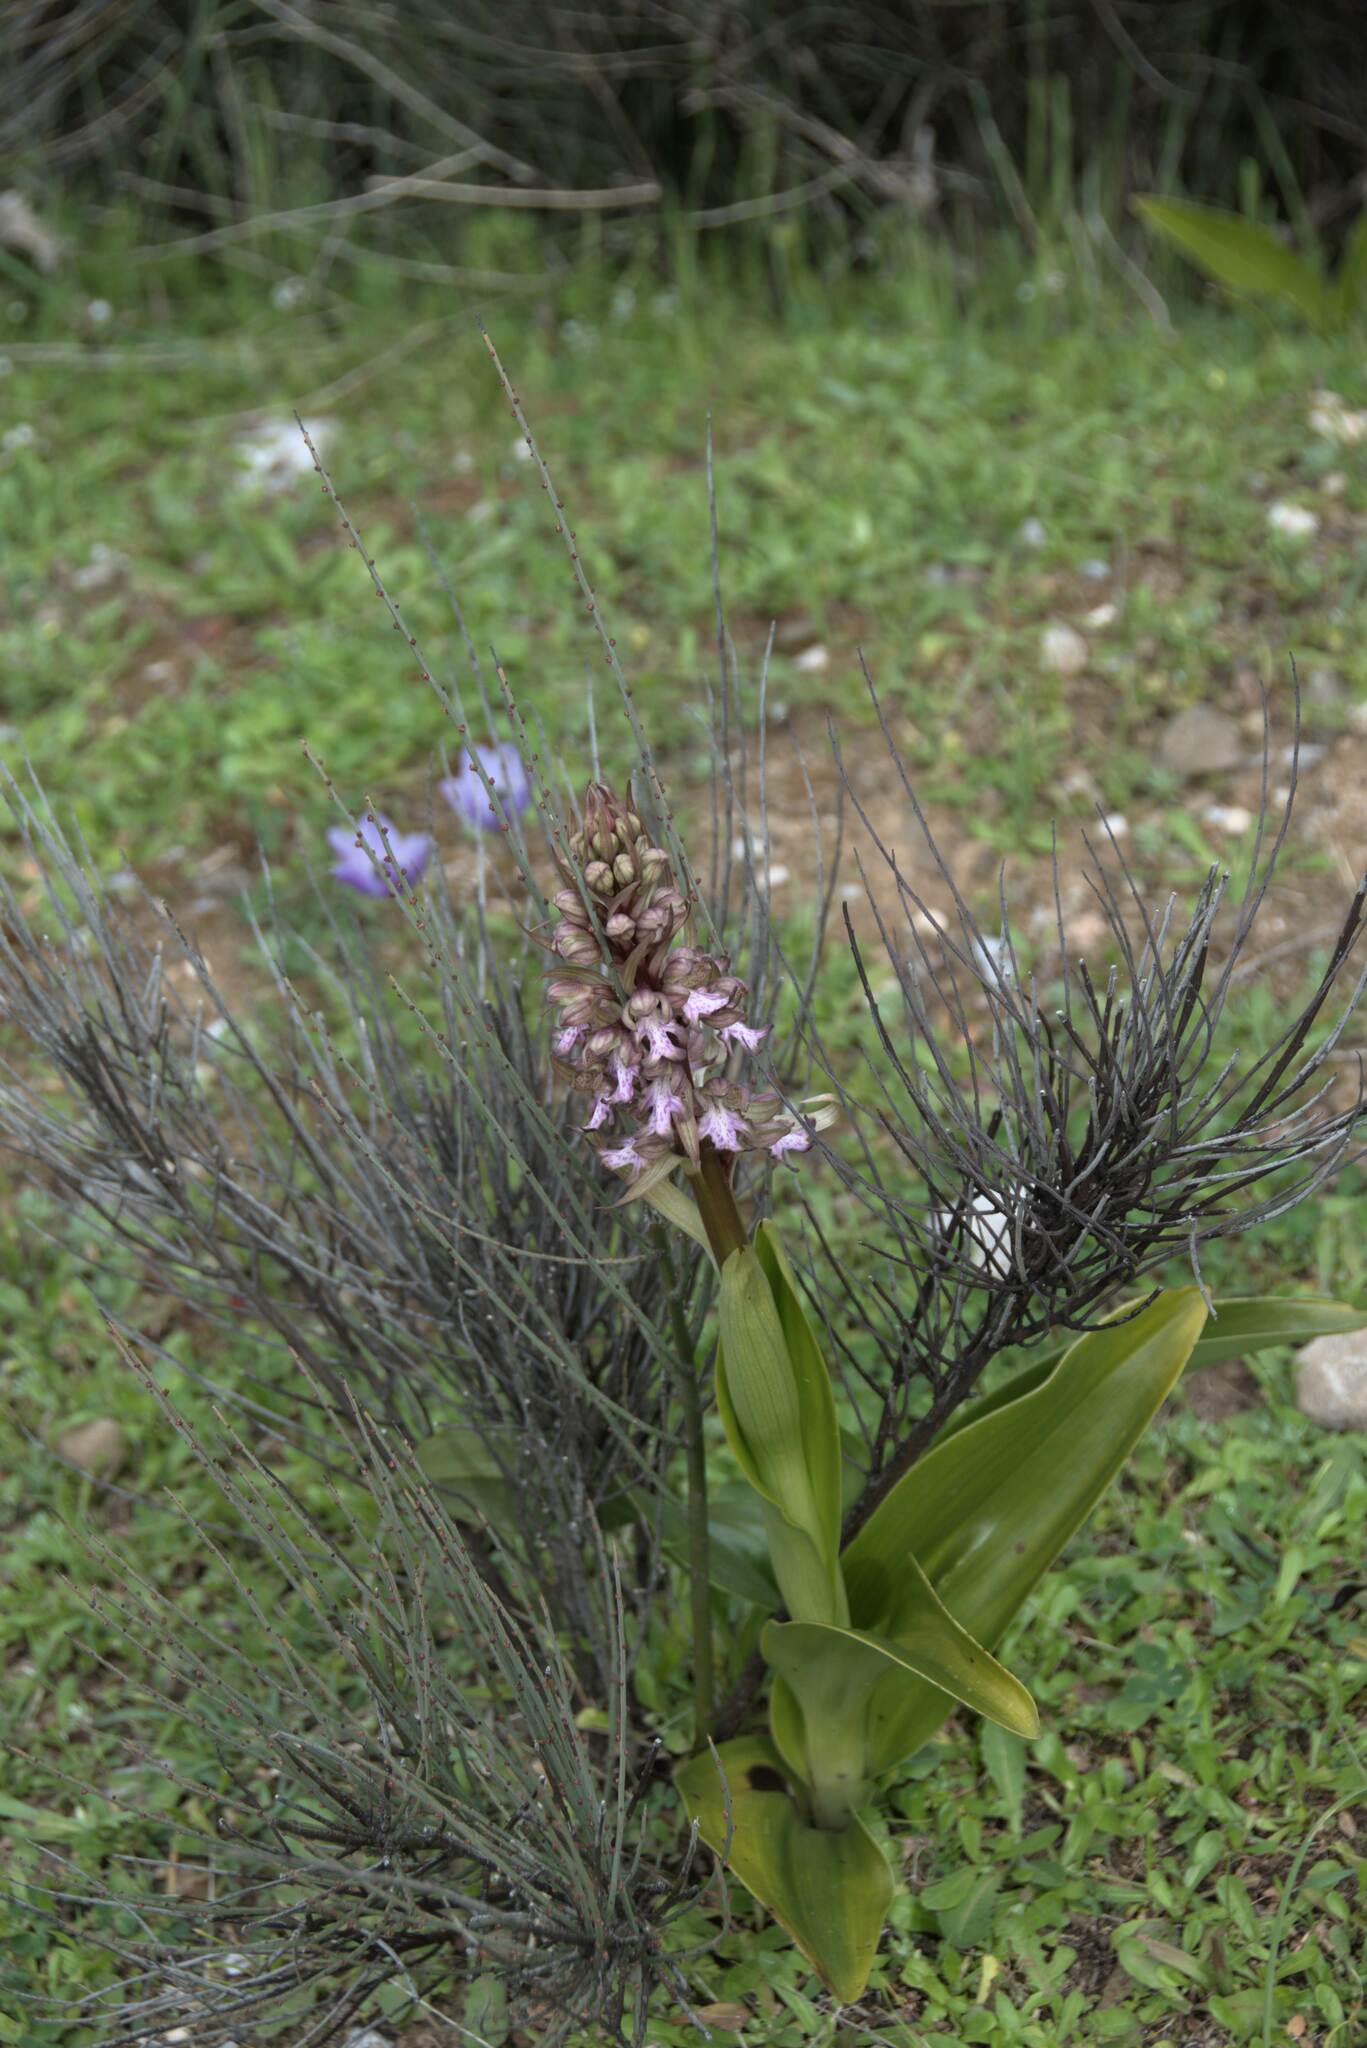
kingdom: Plantae
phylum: Tracheophyta
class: Liliopsida
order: Asparagales
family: Orchidaceae
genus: Himantoglossum
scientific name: Himantoglossum robertianum
